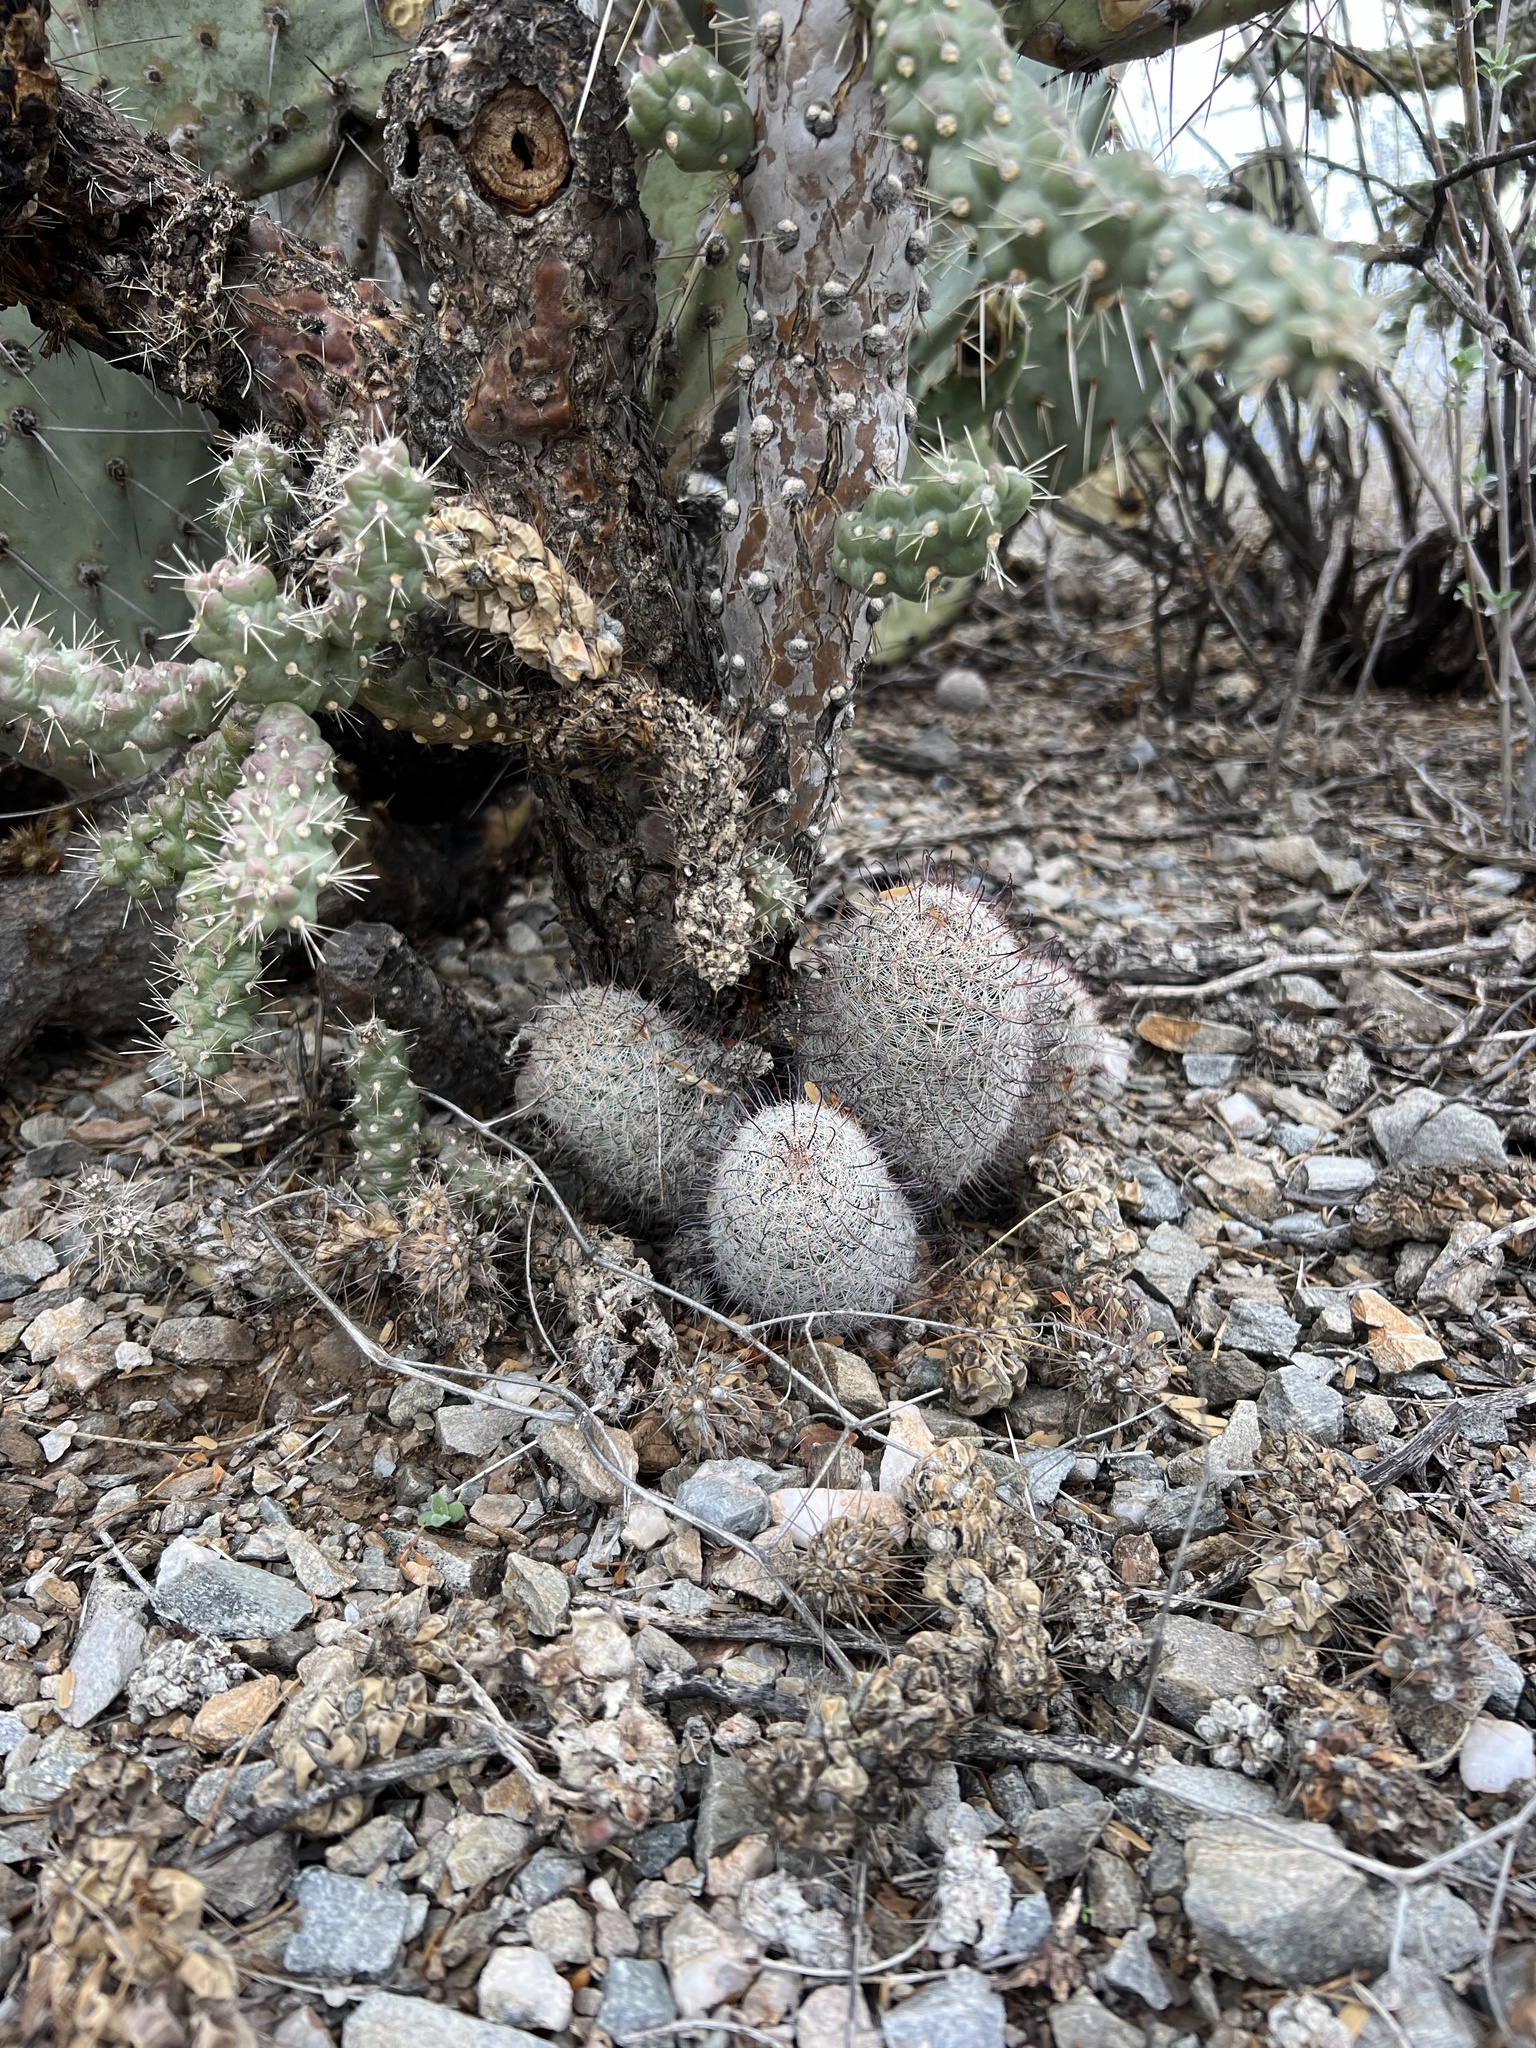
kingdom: Plantae
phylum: Tracheophyta
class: Magnoliopsida
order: Caryophyllales
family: Cactaceae
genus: Cochemiea
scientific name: Cochemiea grahamii
